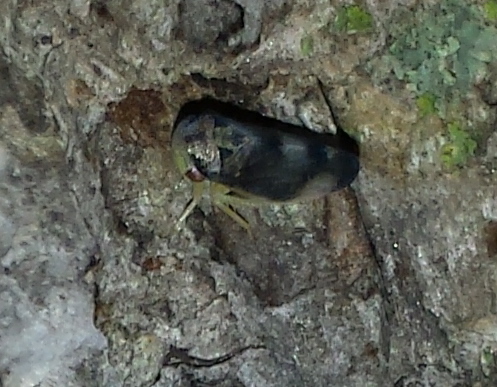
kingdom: Animalia
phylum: Arthropoda
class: Insecta
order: Hemiptera
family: Cicadellidae
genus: Pediopsoides
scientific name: Pediopsoides distinctus
